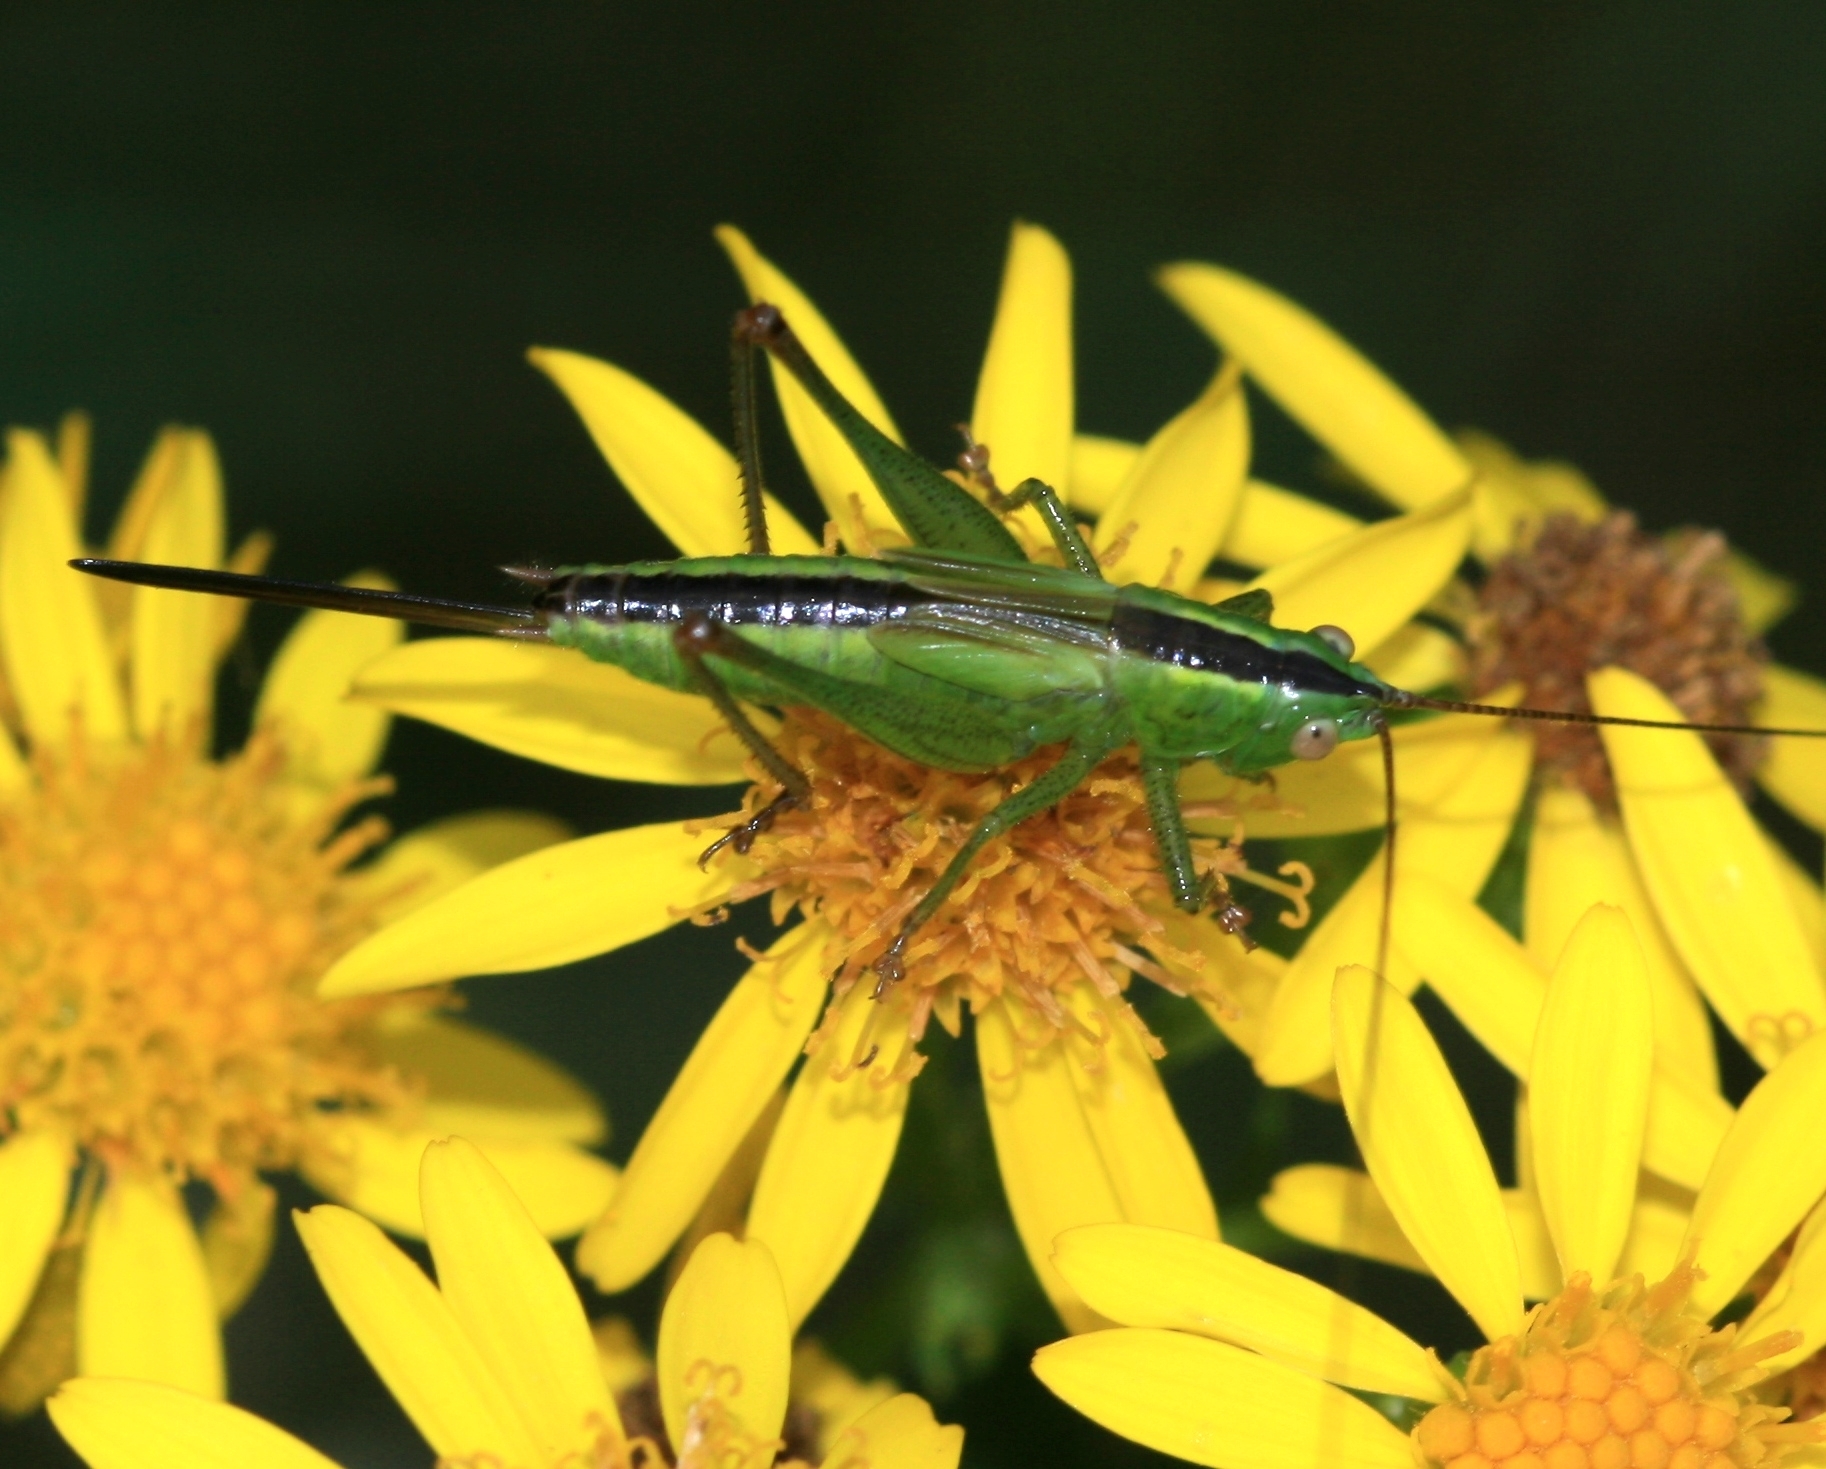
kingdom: Animalia
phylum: Arthropoda
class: Insecta
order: Orthoptera
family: Tettigoniidae
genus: Conocephalus
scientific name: Conocephalus fuscus
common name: Long-winged conehead
